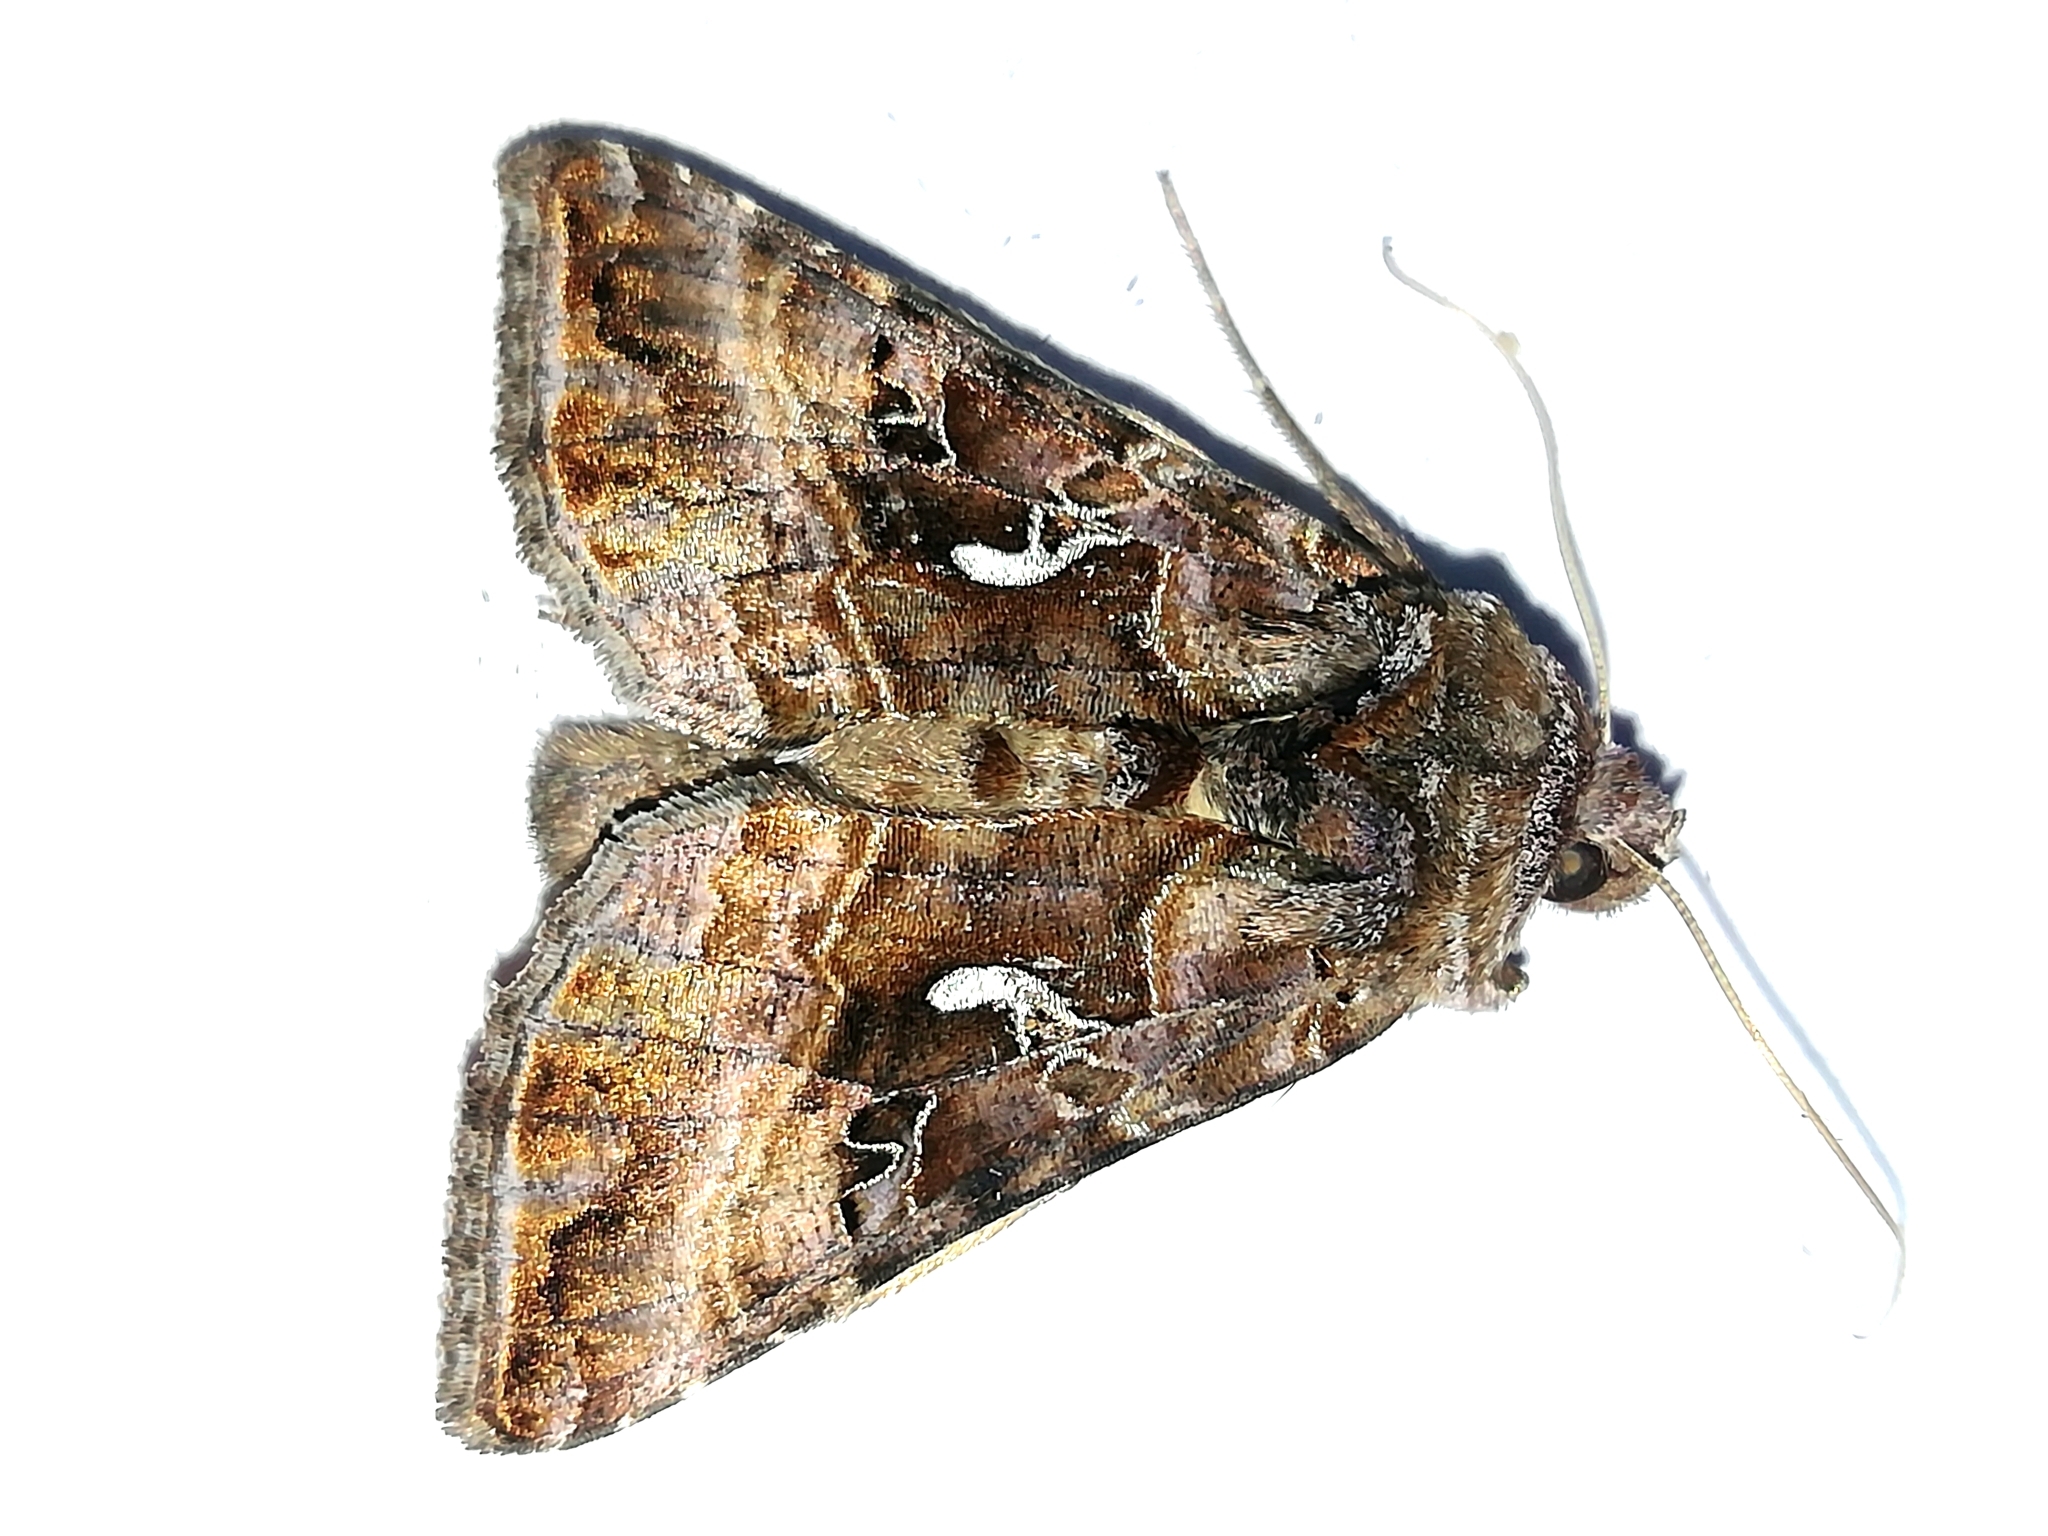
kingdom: Animalia
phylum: Arthropoda
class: Insecta
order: Lepidoptera
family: Noctuidae
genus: Autographa
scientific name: Autographa mandarina
